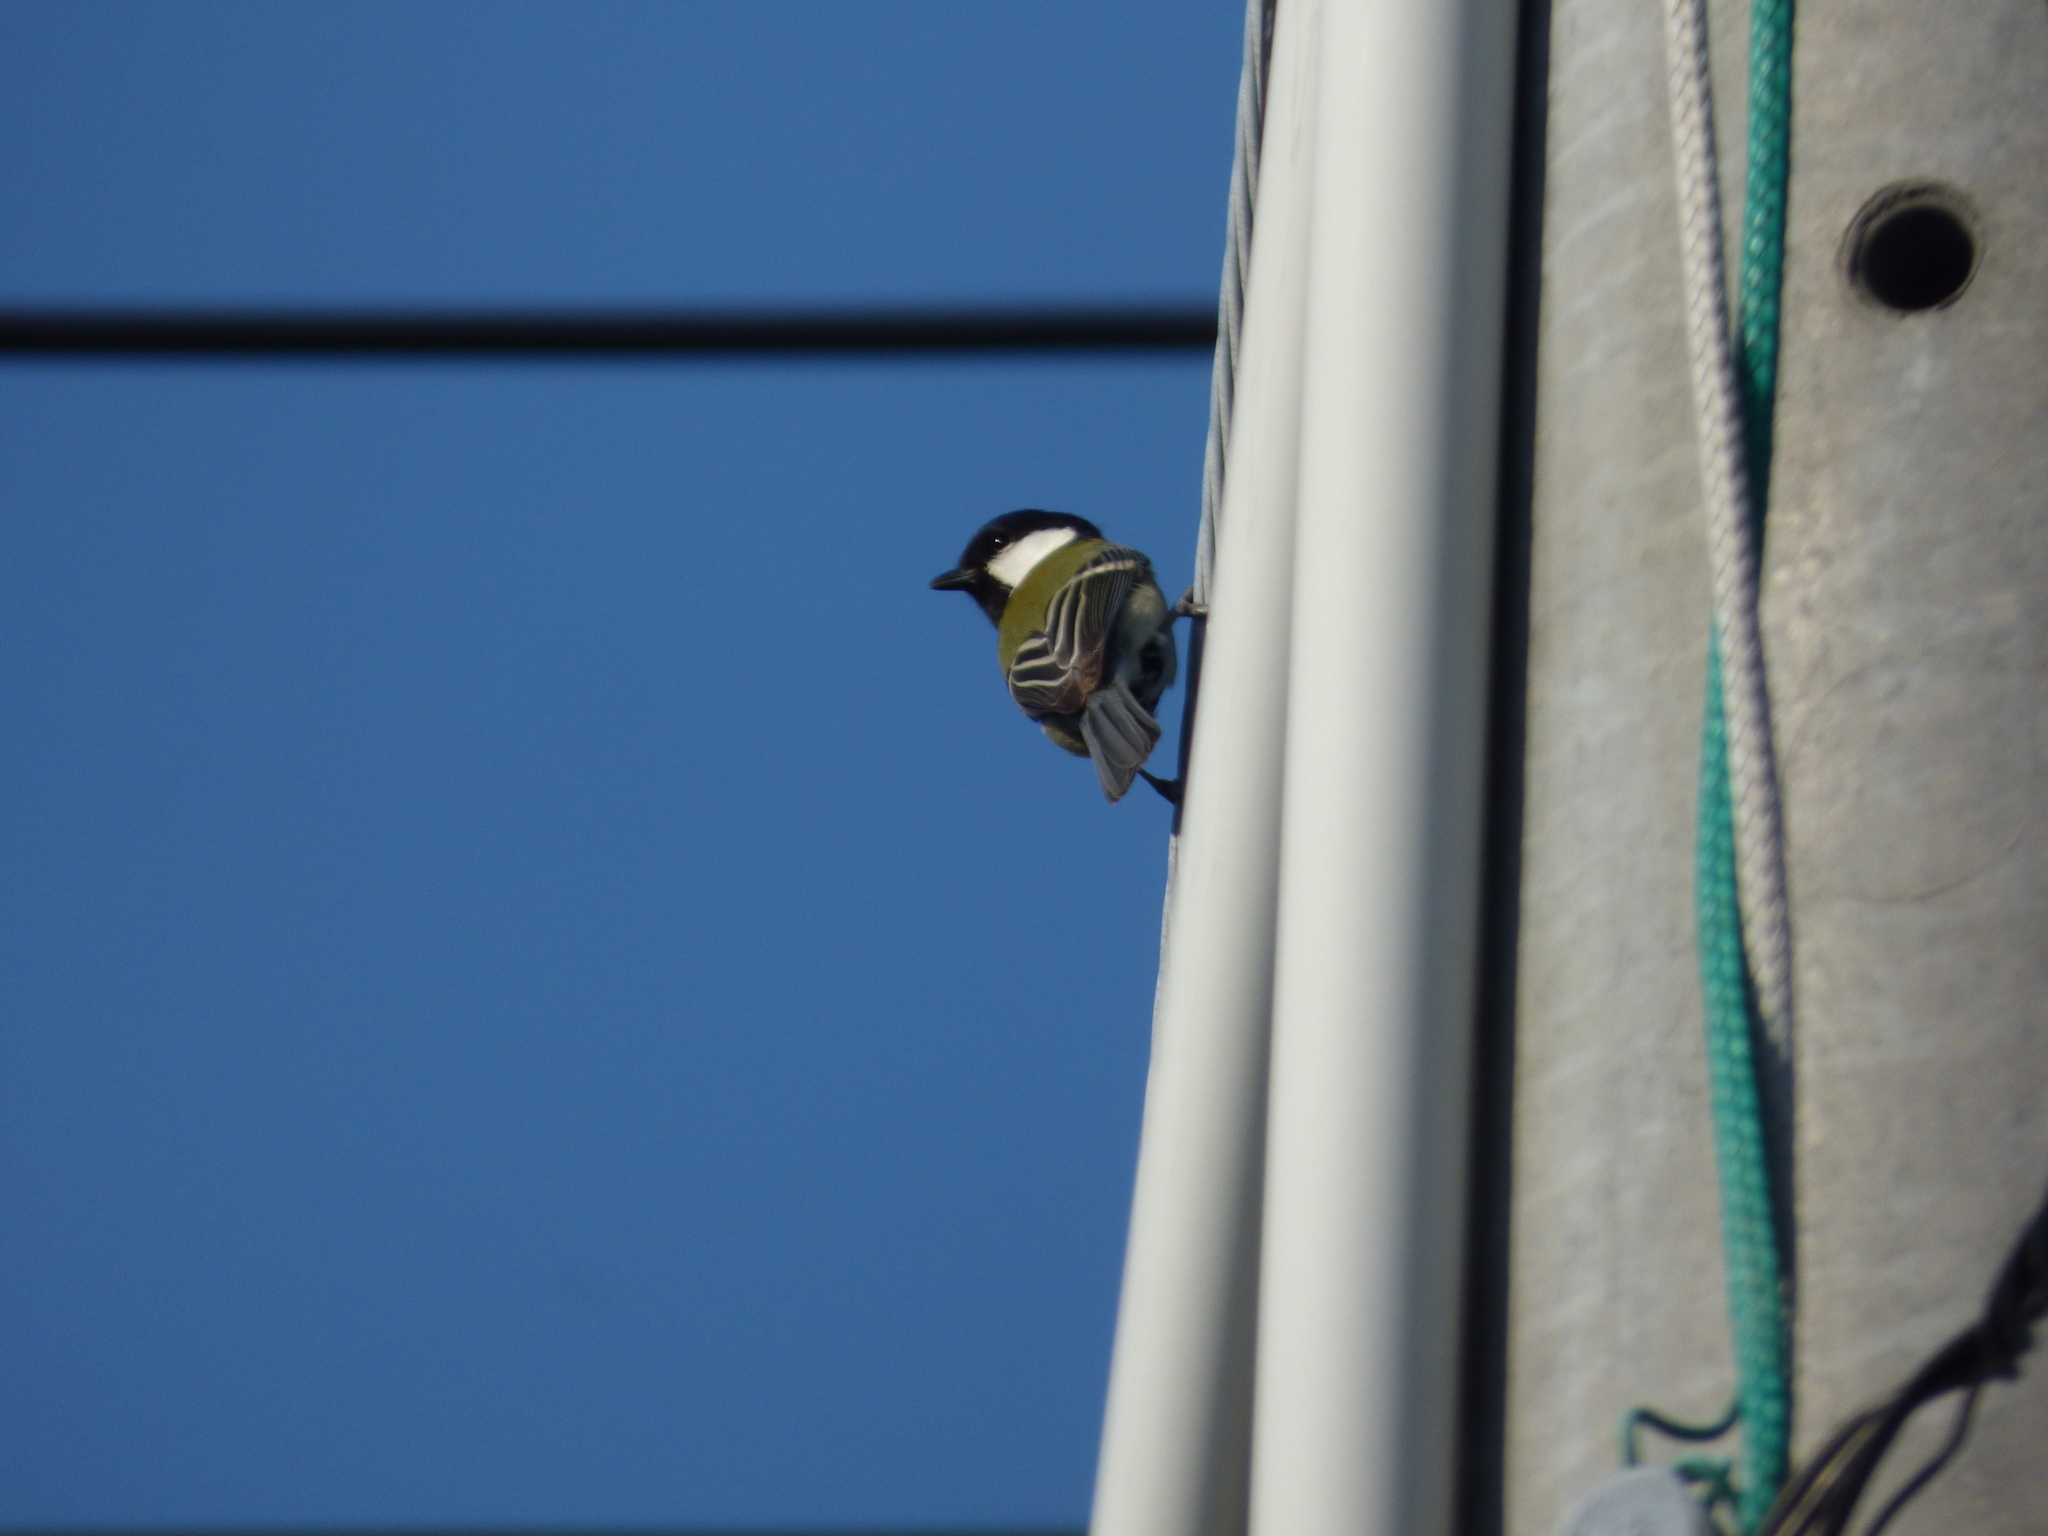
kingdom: Animalia
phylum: Chordata
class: Aves
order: Passeriformes
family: Paridae
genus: Parus
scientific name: Parus minor
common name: Japanese tit
